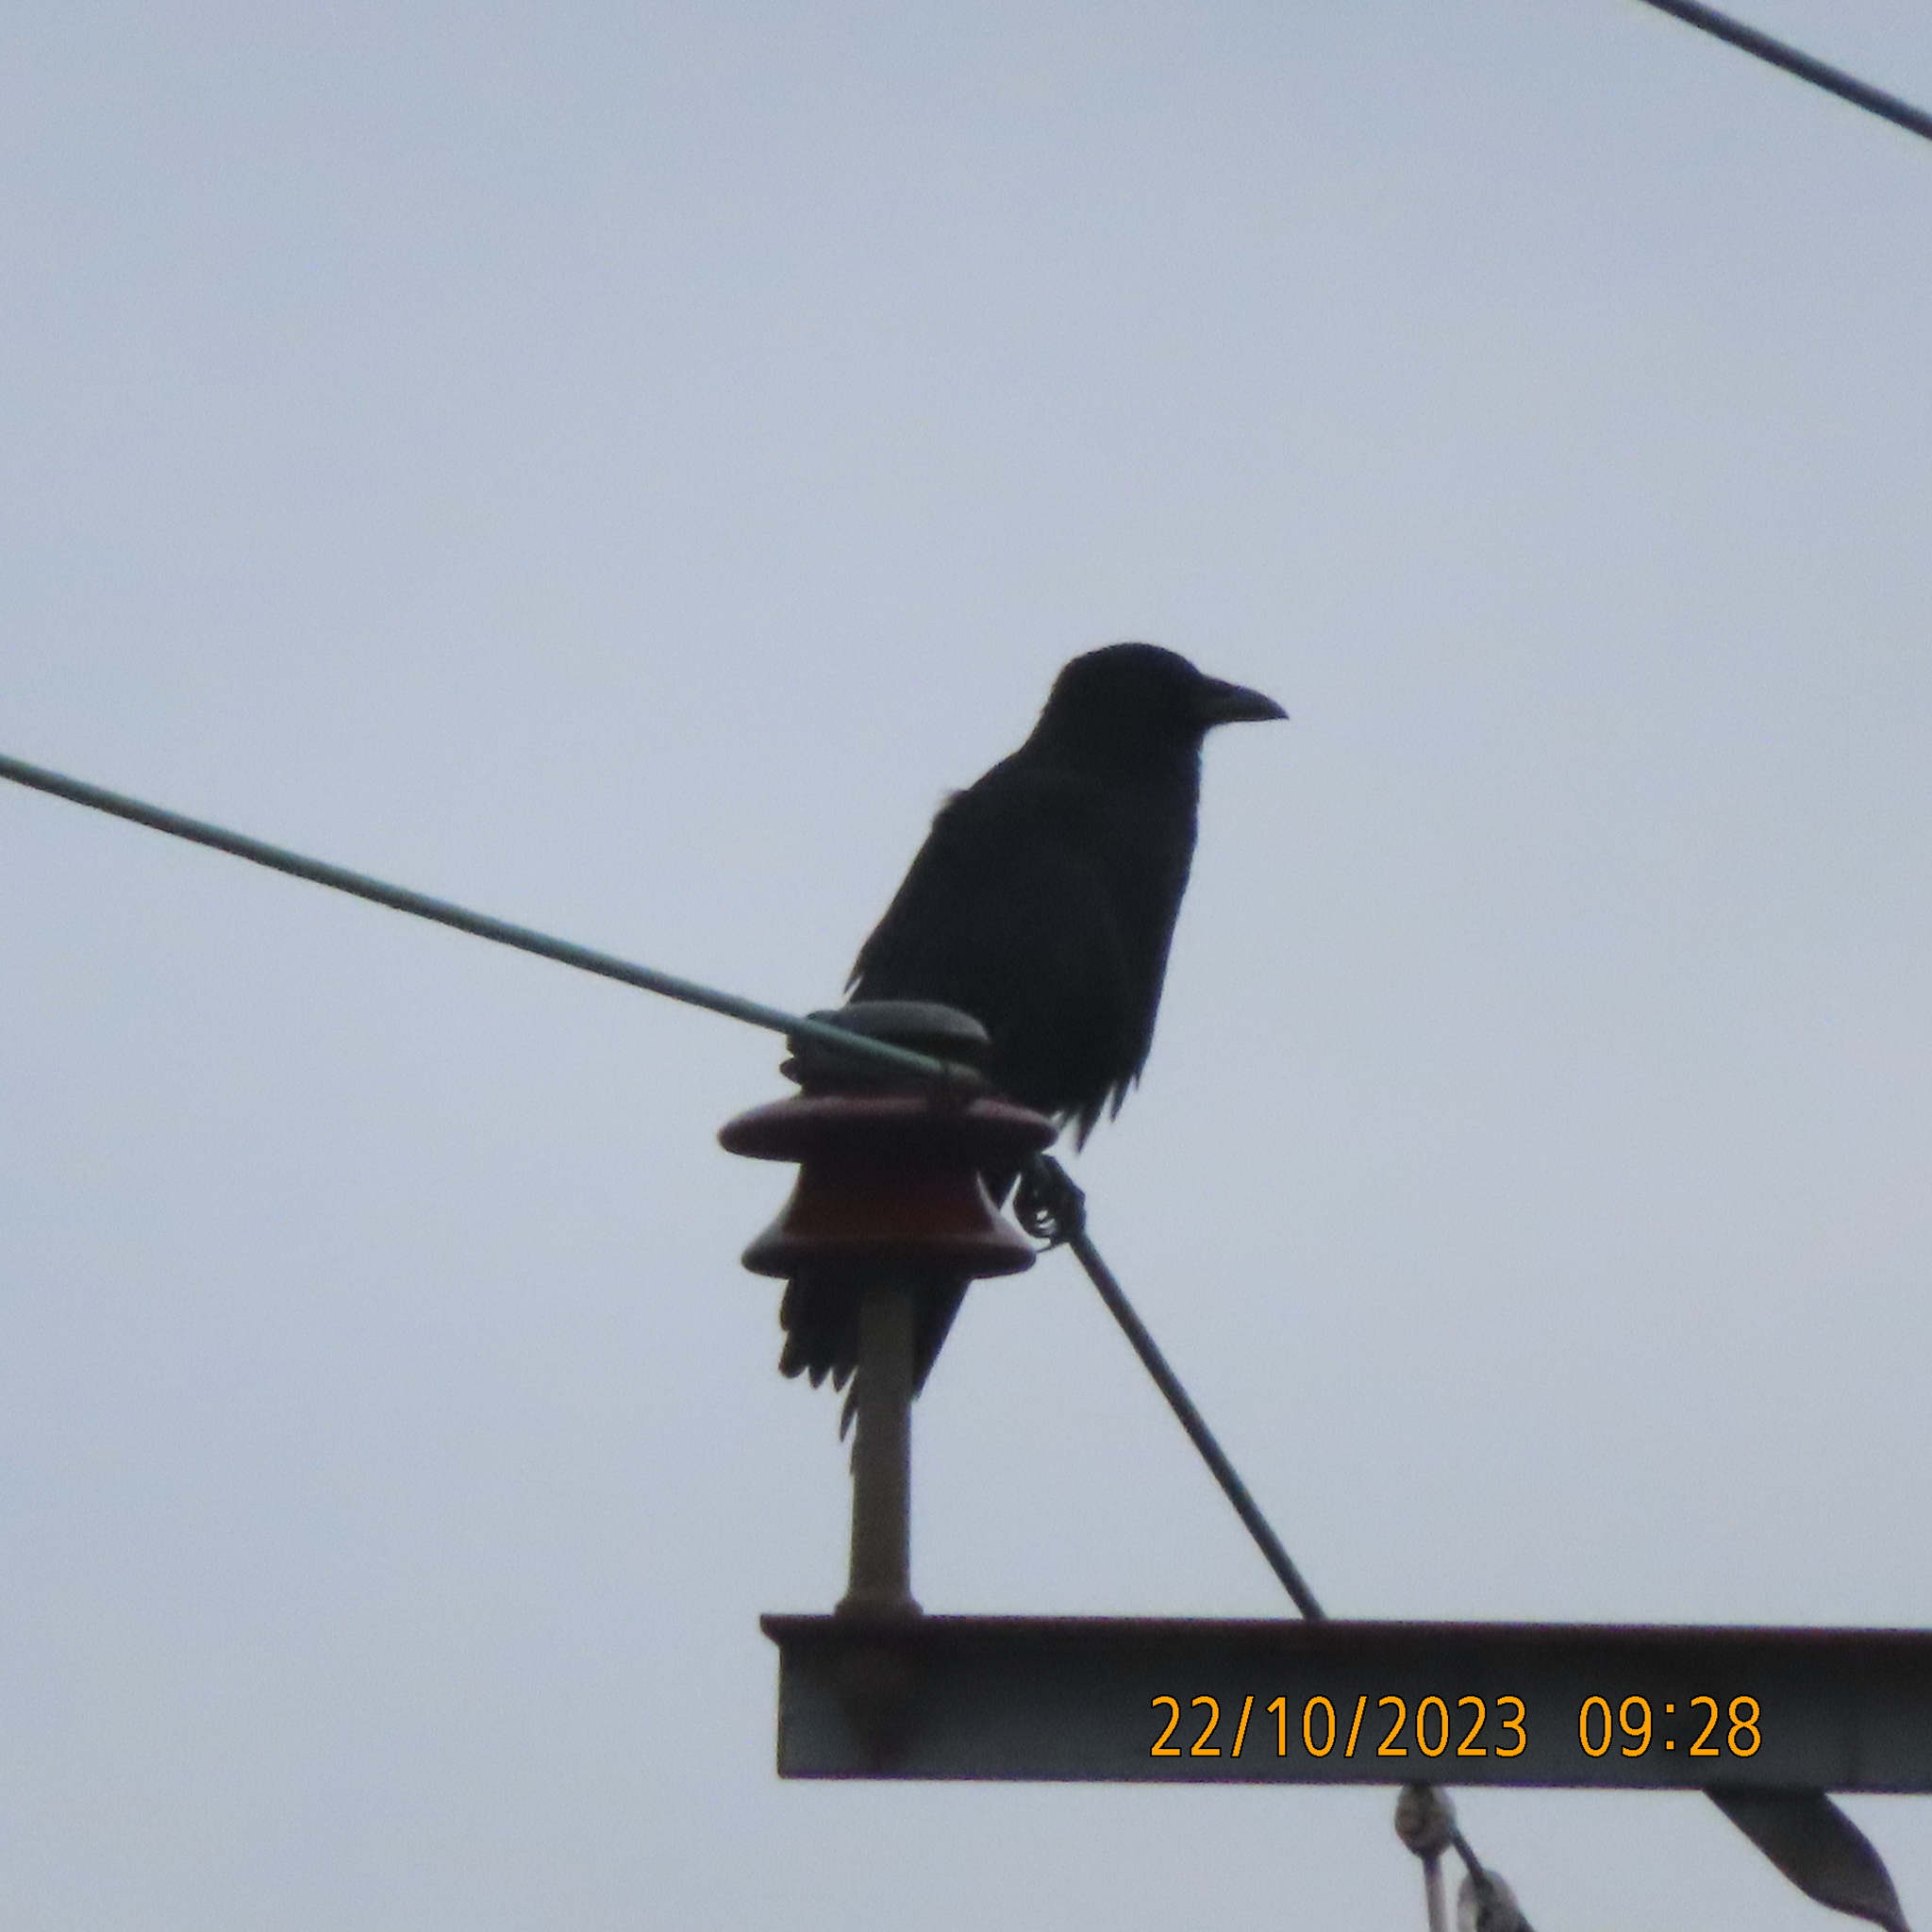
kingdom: Animalia
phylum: Chordata
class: Aves
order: Passeriformes
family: Corvidae
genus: Corvus
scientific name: Corvus corone
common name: Carrion crow
